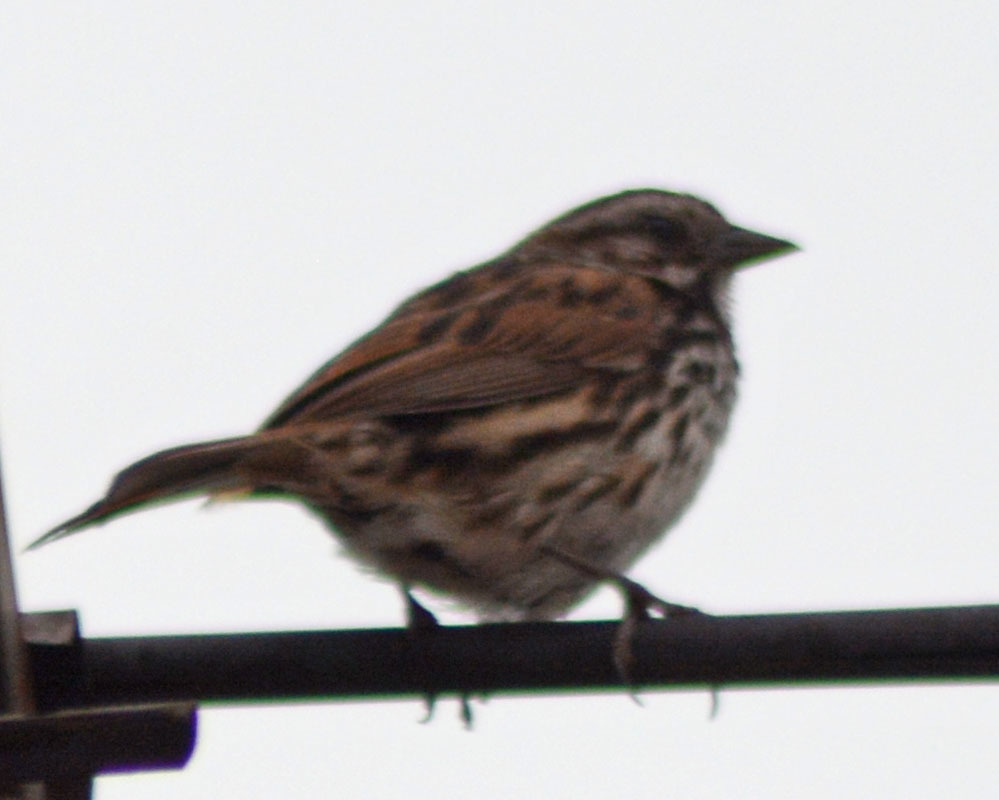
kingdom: Animalia
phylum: Chordata
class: Aves
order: Passeriformes
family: Passerellidae
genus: Melospiza
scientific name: Melospiza melodia
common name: Song sparrow
